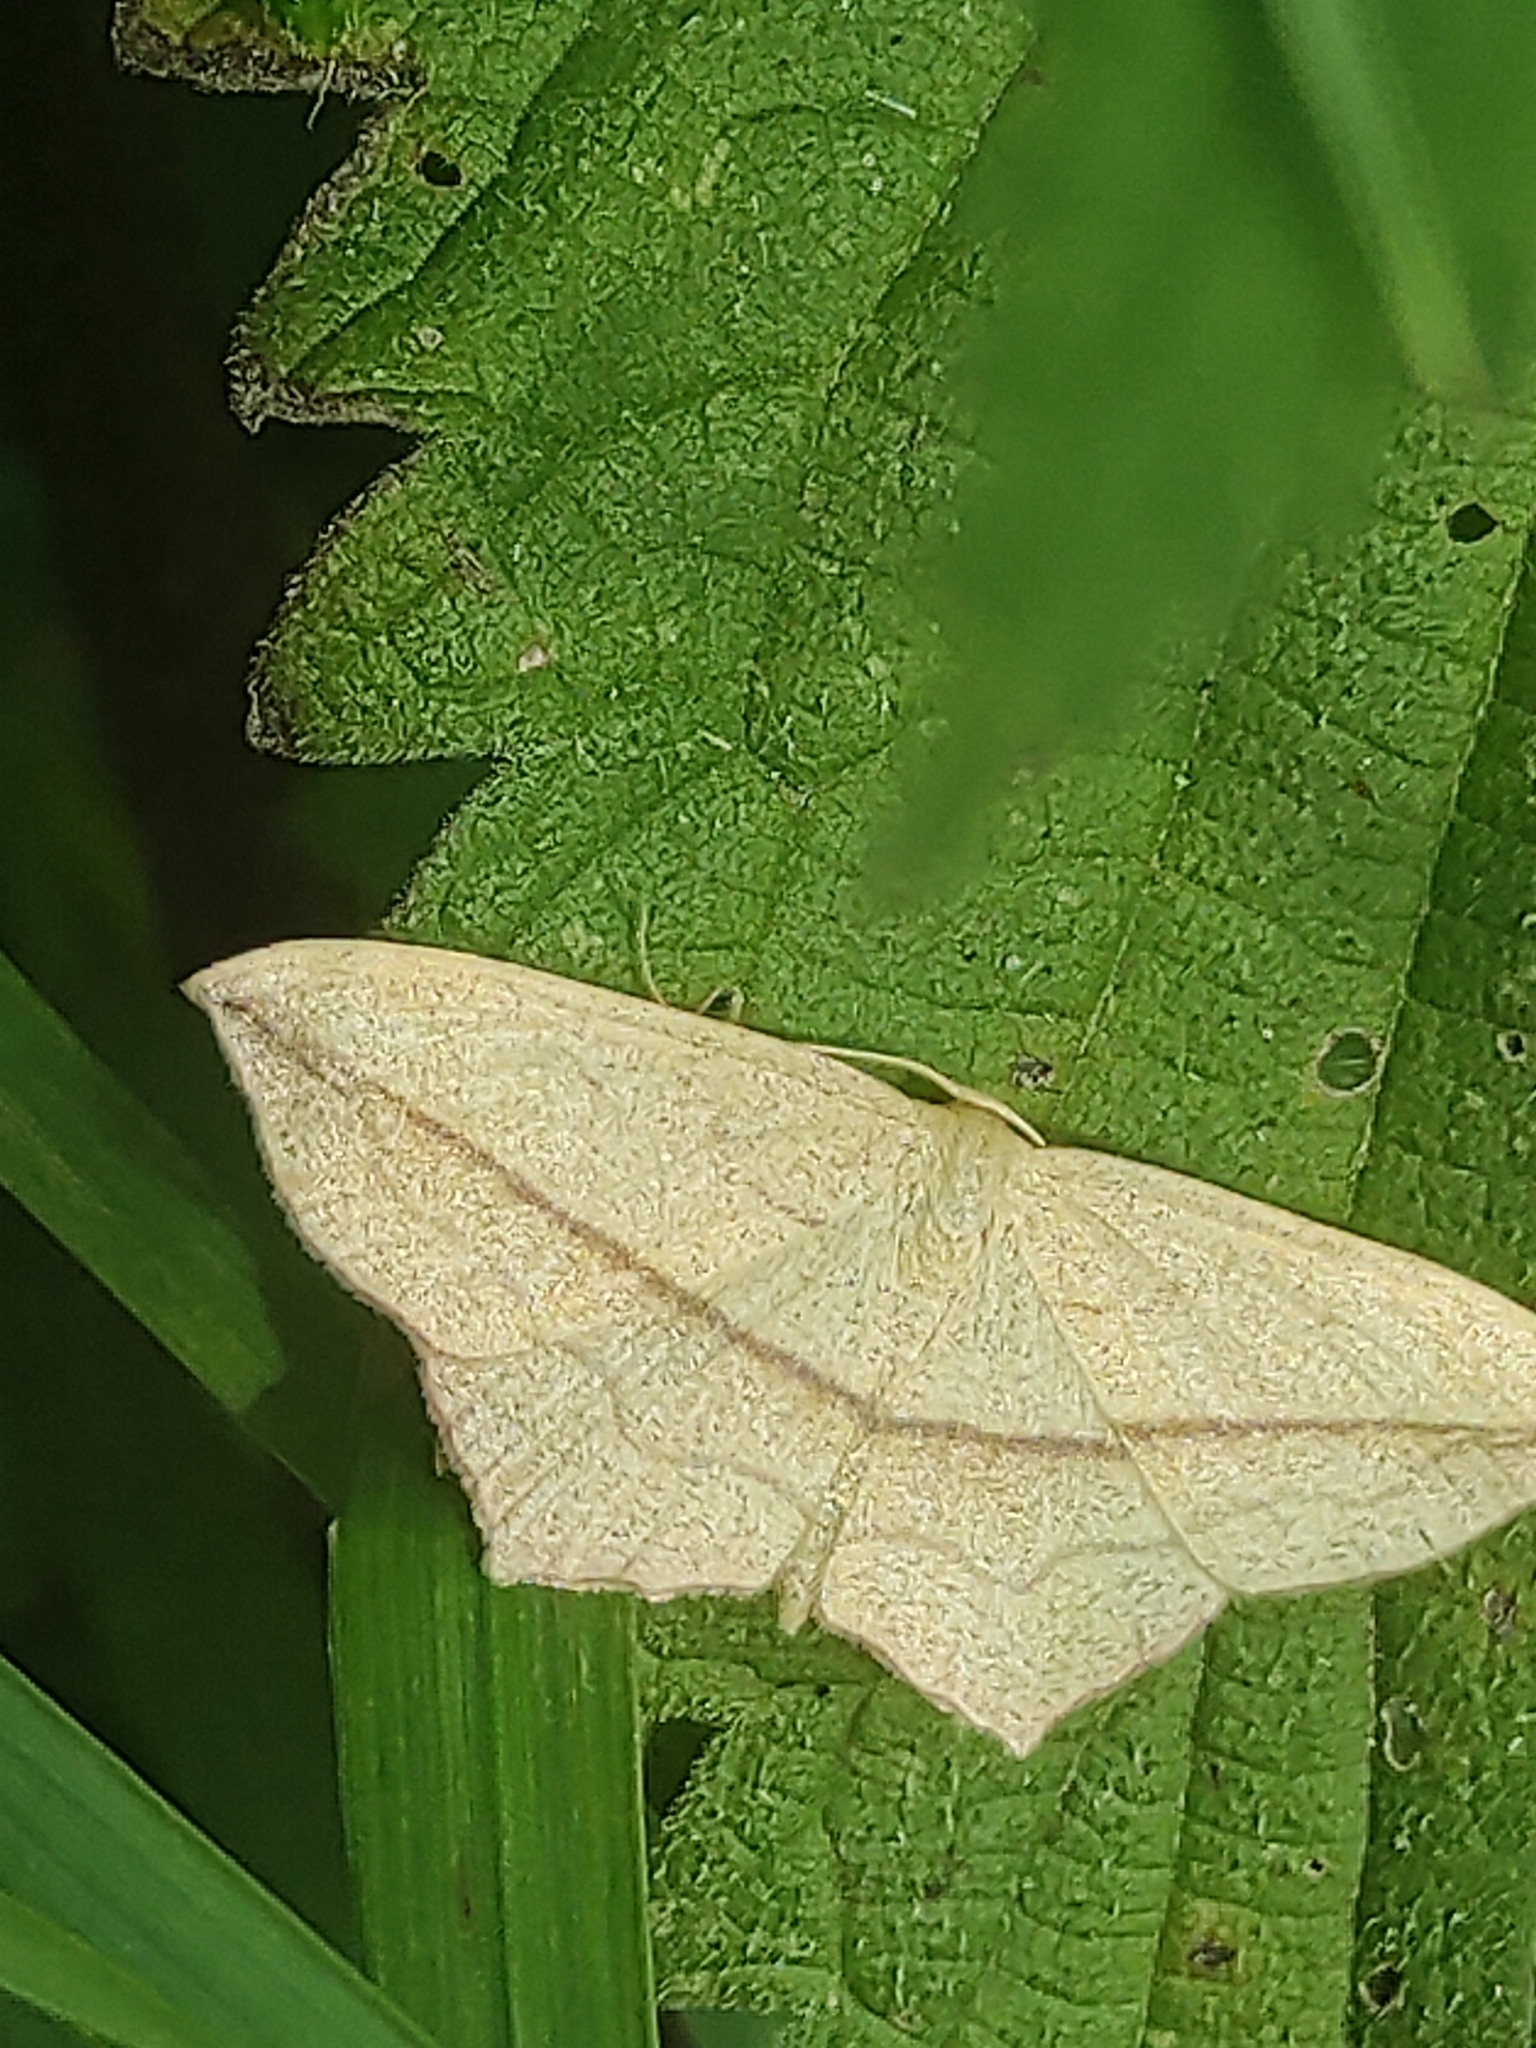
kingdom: Animalia
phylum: Arthropoda
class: Insecta
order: Lepidoptera
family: Geometridae
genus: Timandra
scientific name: Timandra comae
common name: Blood-vein
